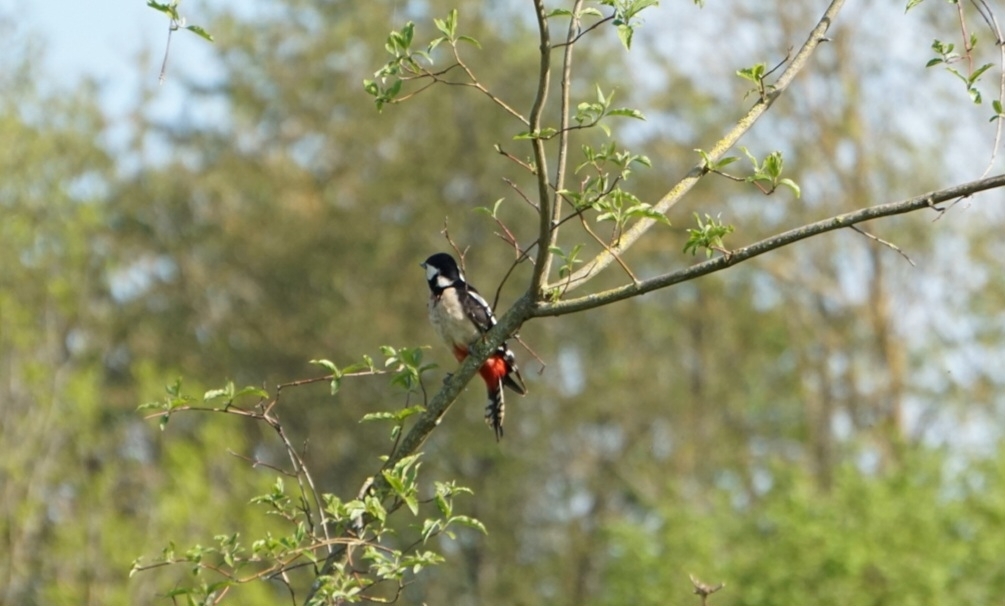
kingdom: Animalia
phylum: Chordata
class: Aves
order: Piciformes
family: Picidae
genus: Dendrocopos
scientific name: Dendrocopos major
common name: Great spotted woodpecker
